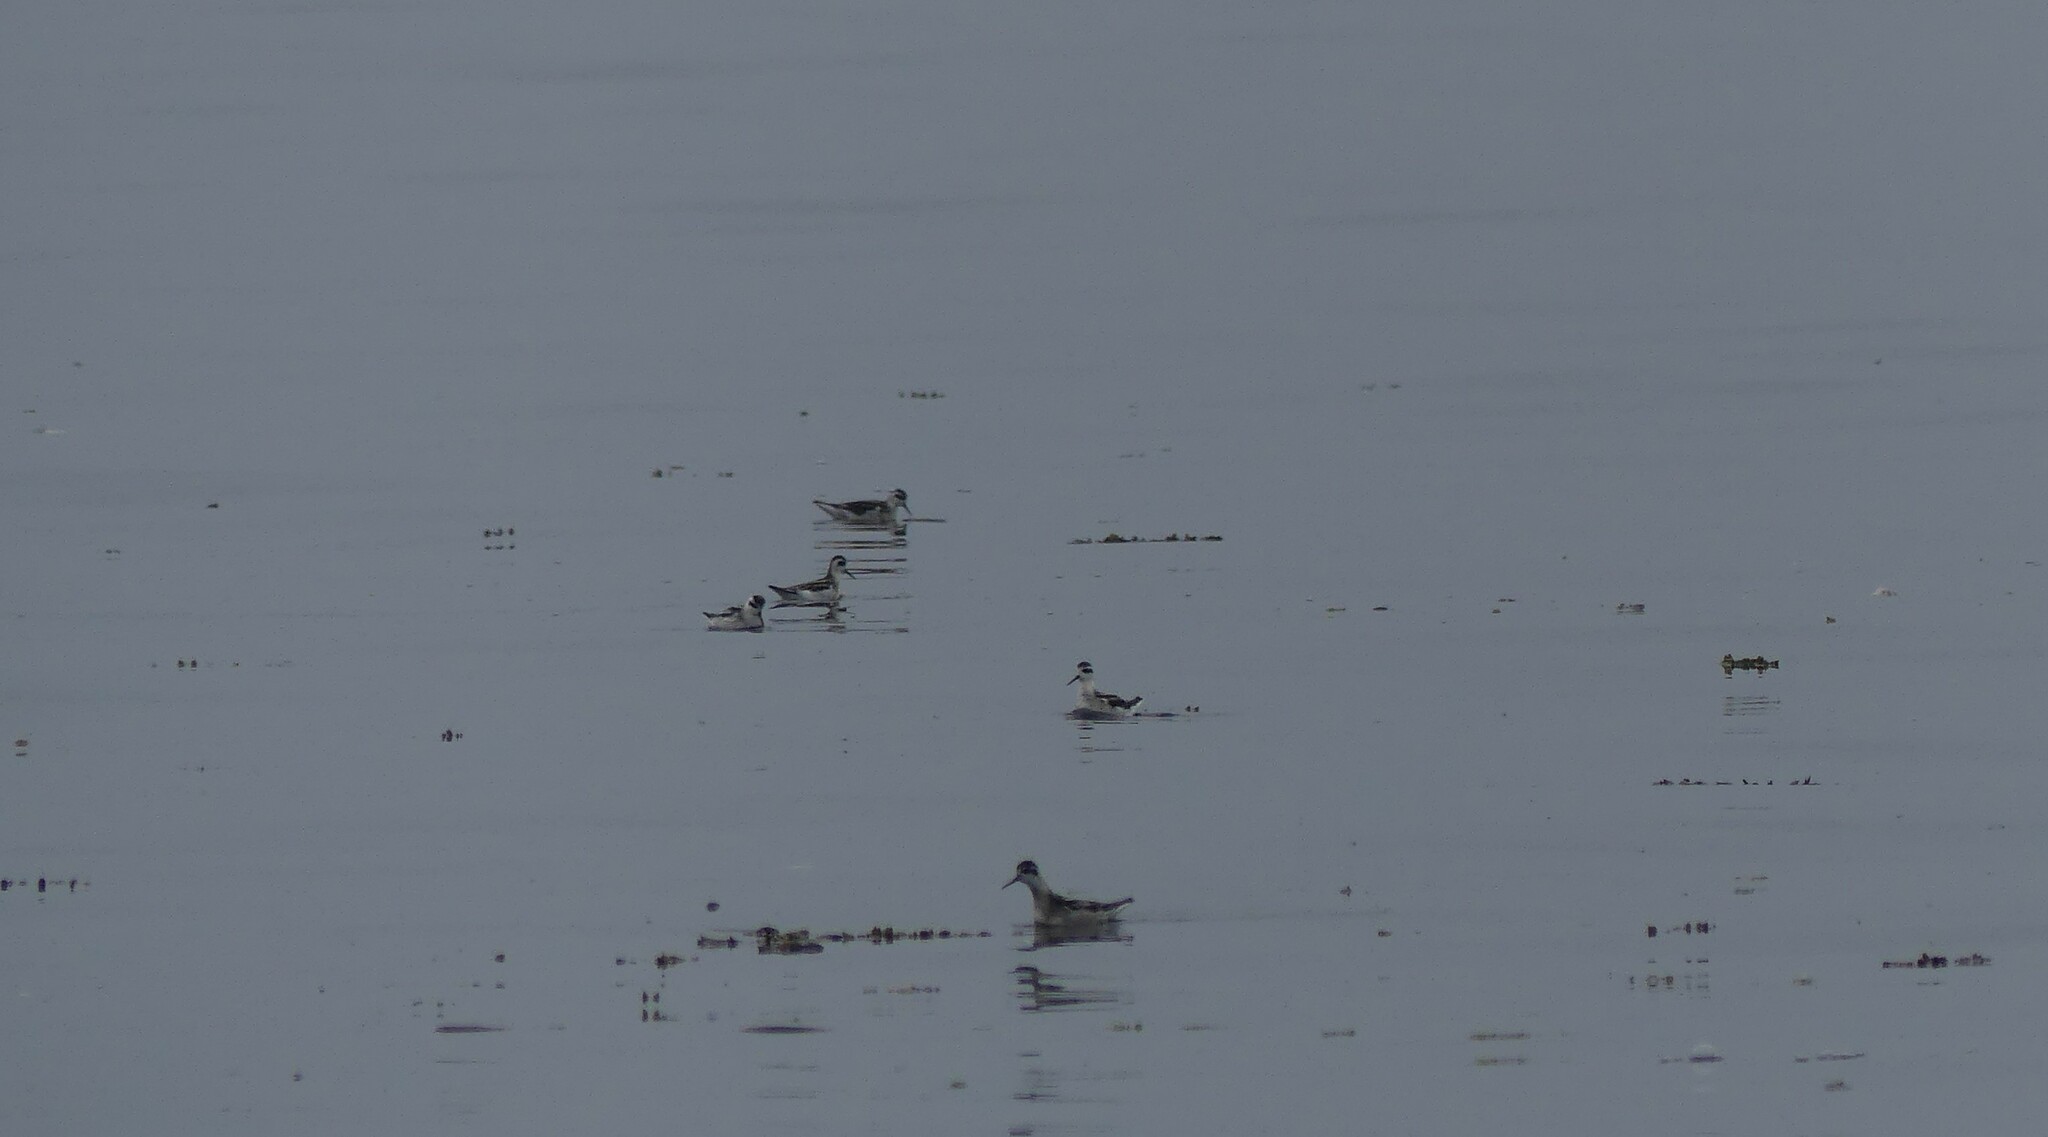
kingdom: Animalia
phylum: Chordata
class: Aves
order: Charadriiformes
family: Scolopacidae
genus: Phalaropus
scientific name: Phalaropus lobatus
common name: Red-necked phalarope
